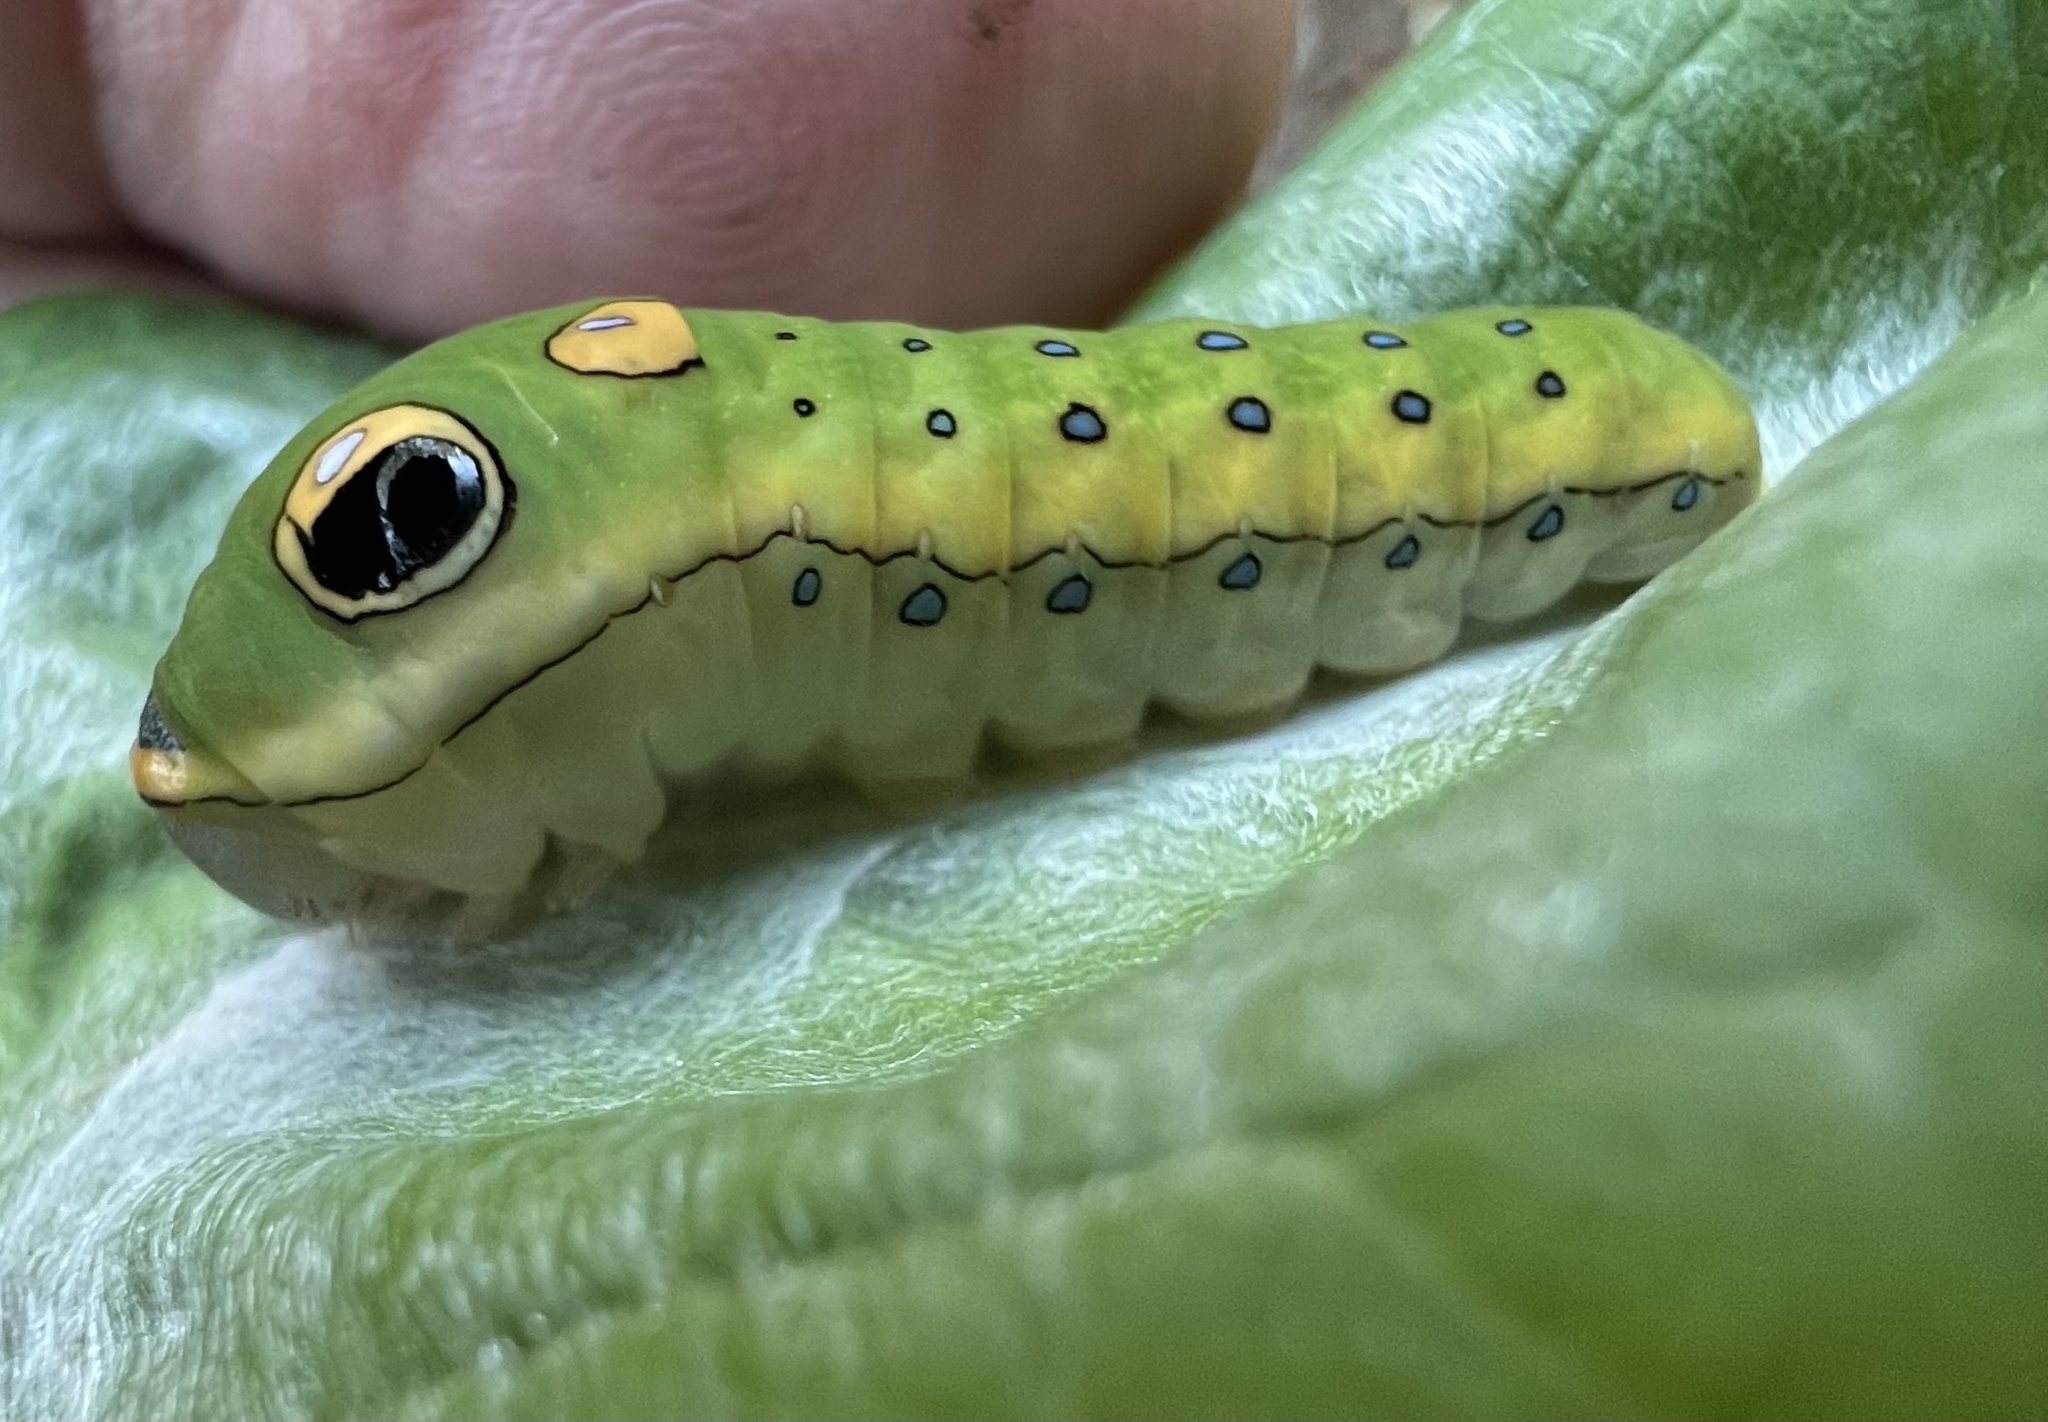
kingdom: Animalia
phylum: Arthropoda
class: Insecta
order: Lepidoptera
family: Papilionidae
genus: Papilio
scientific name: Papilio troilus
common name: Spicebush swallowtail
